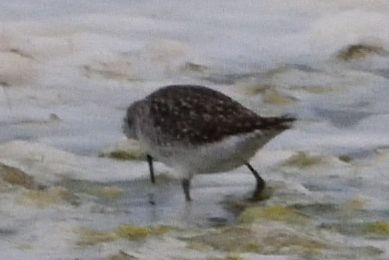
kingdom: Animalia
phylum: Chordata
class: Aves
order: Charadriiformes
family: Scolopacidae
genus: Tringa
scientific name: Tringa glareola
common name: Wood sandpiper
